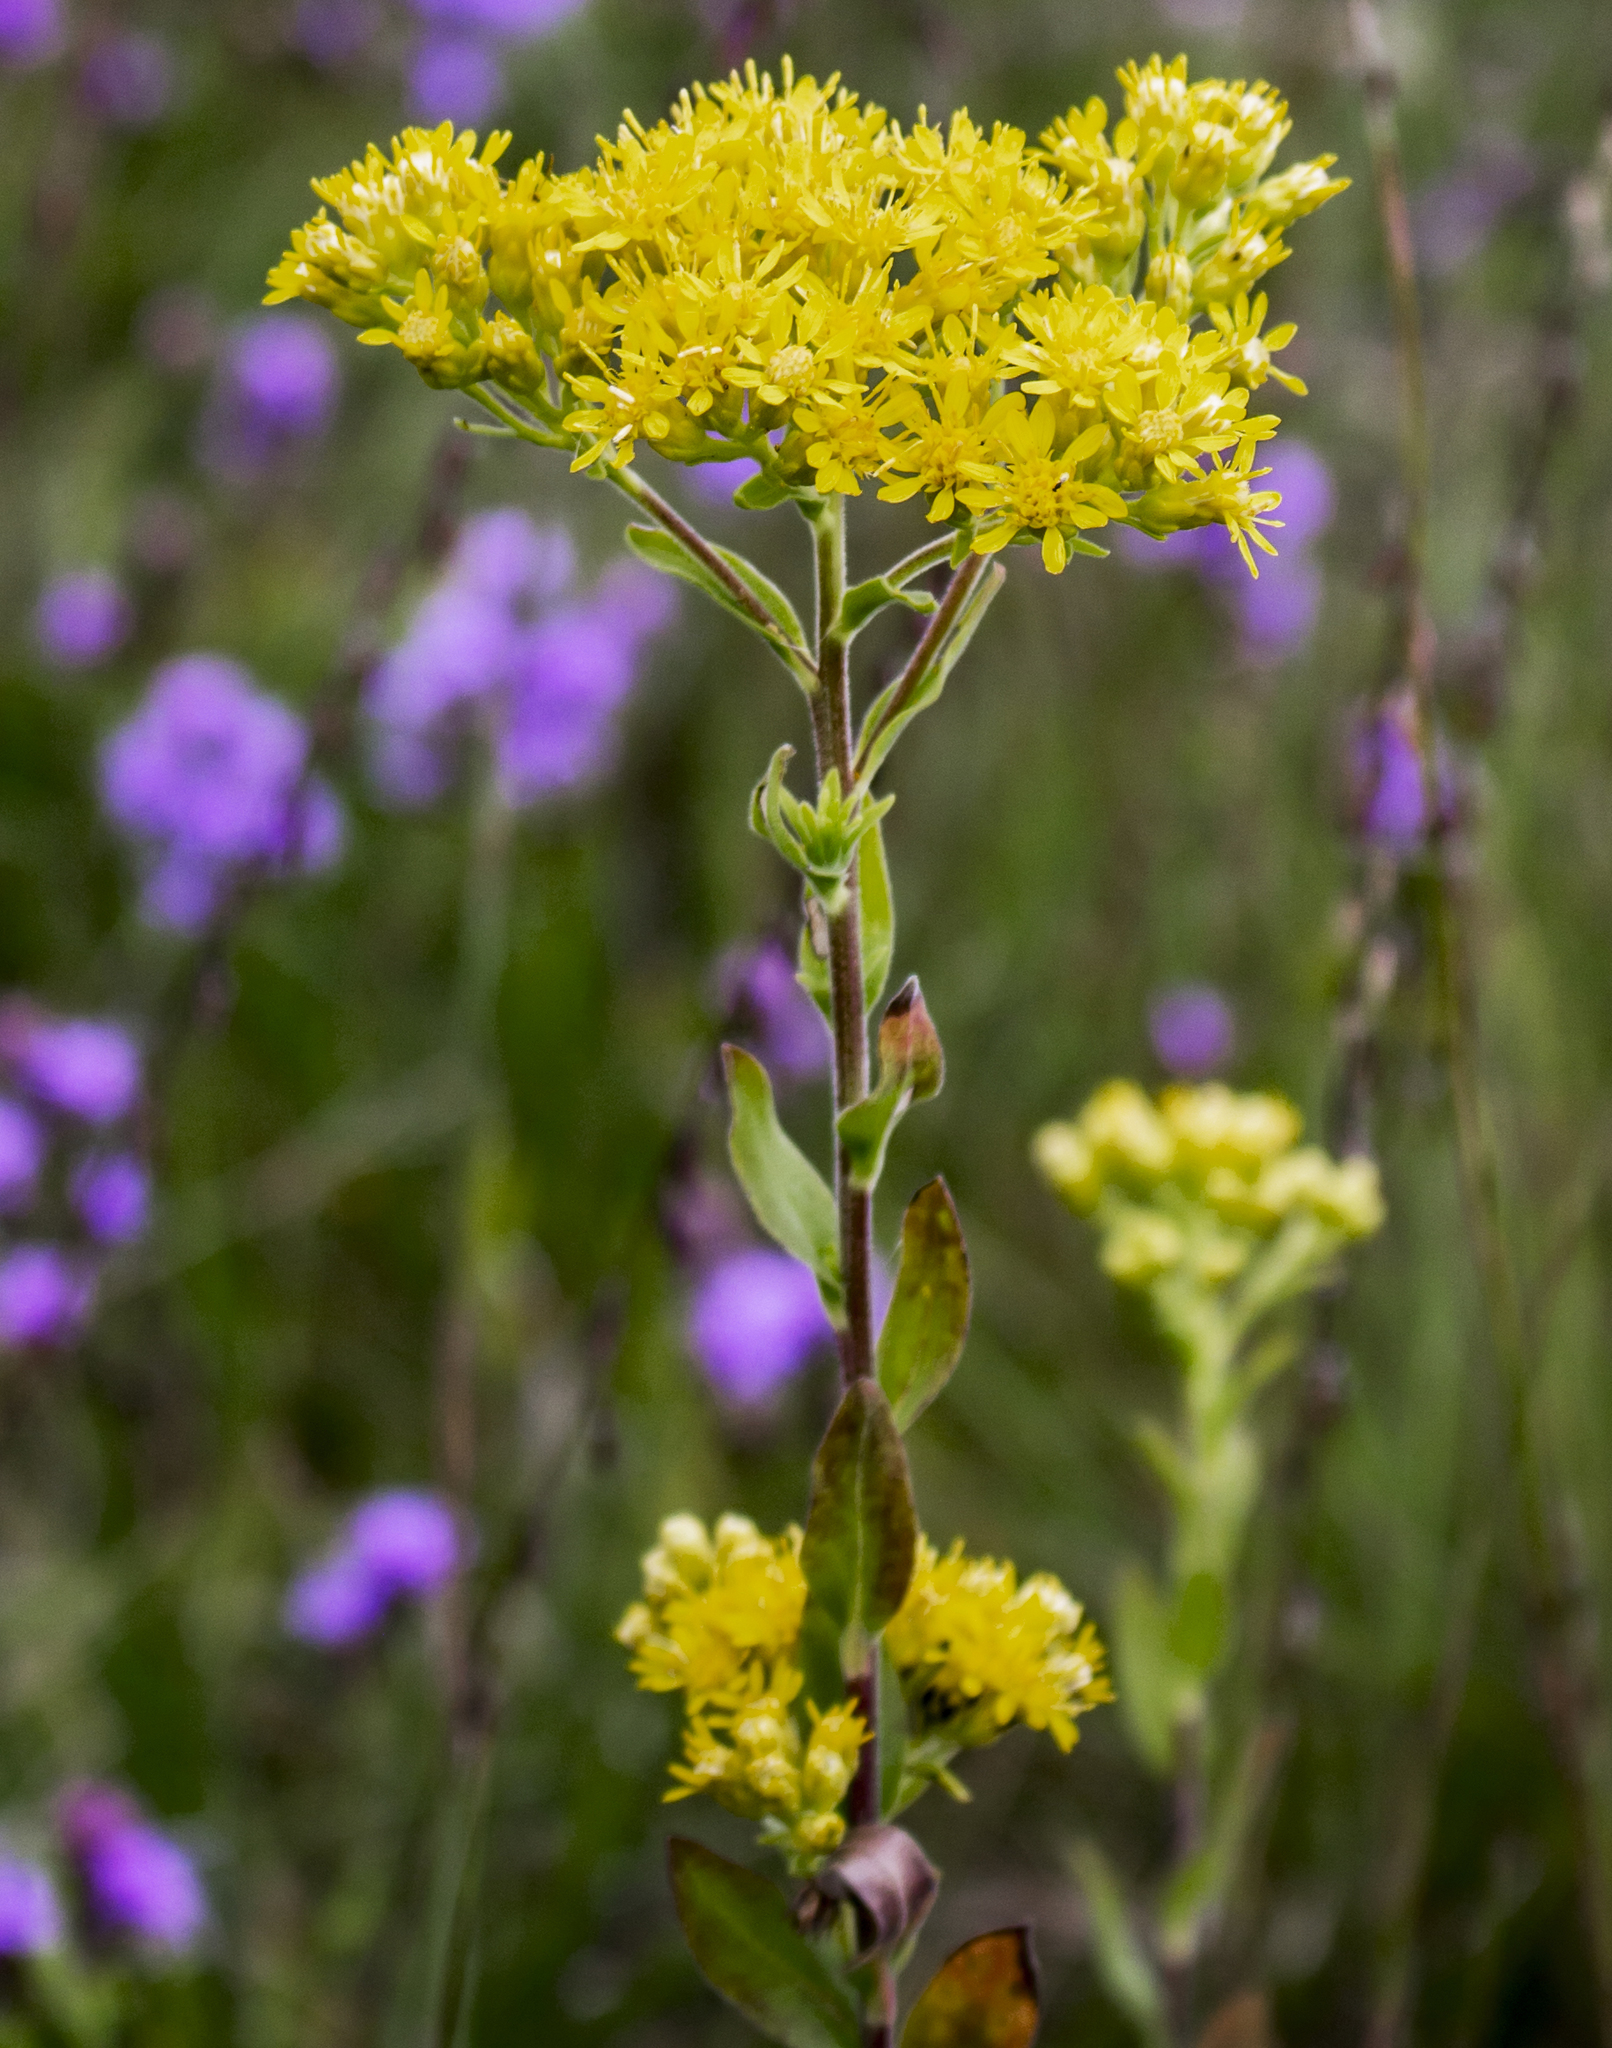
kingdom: Plantae
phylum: Tracheophyta
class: Magnoliopsida
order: Asterales
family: Asteraceae
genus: Solidago
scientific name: Solidago rigida
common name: Rigid goldenrod
